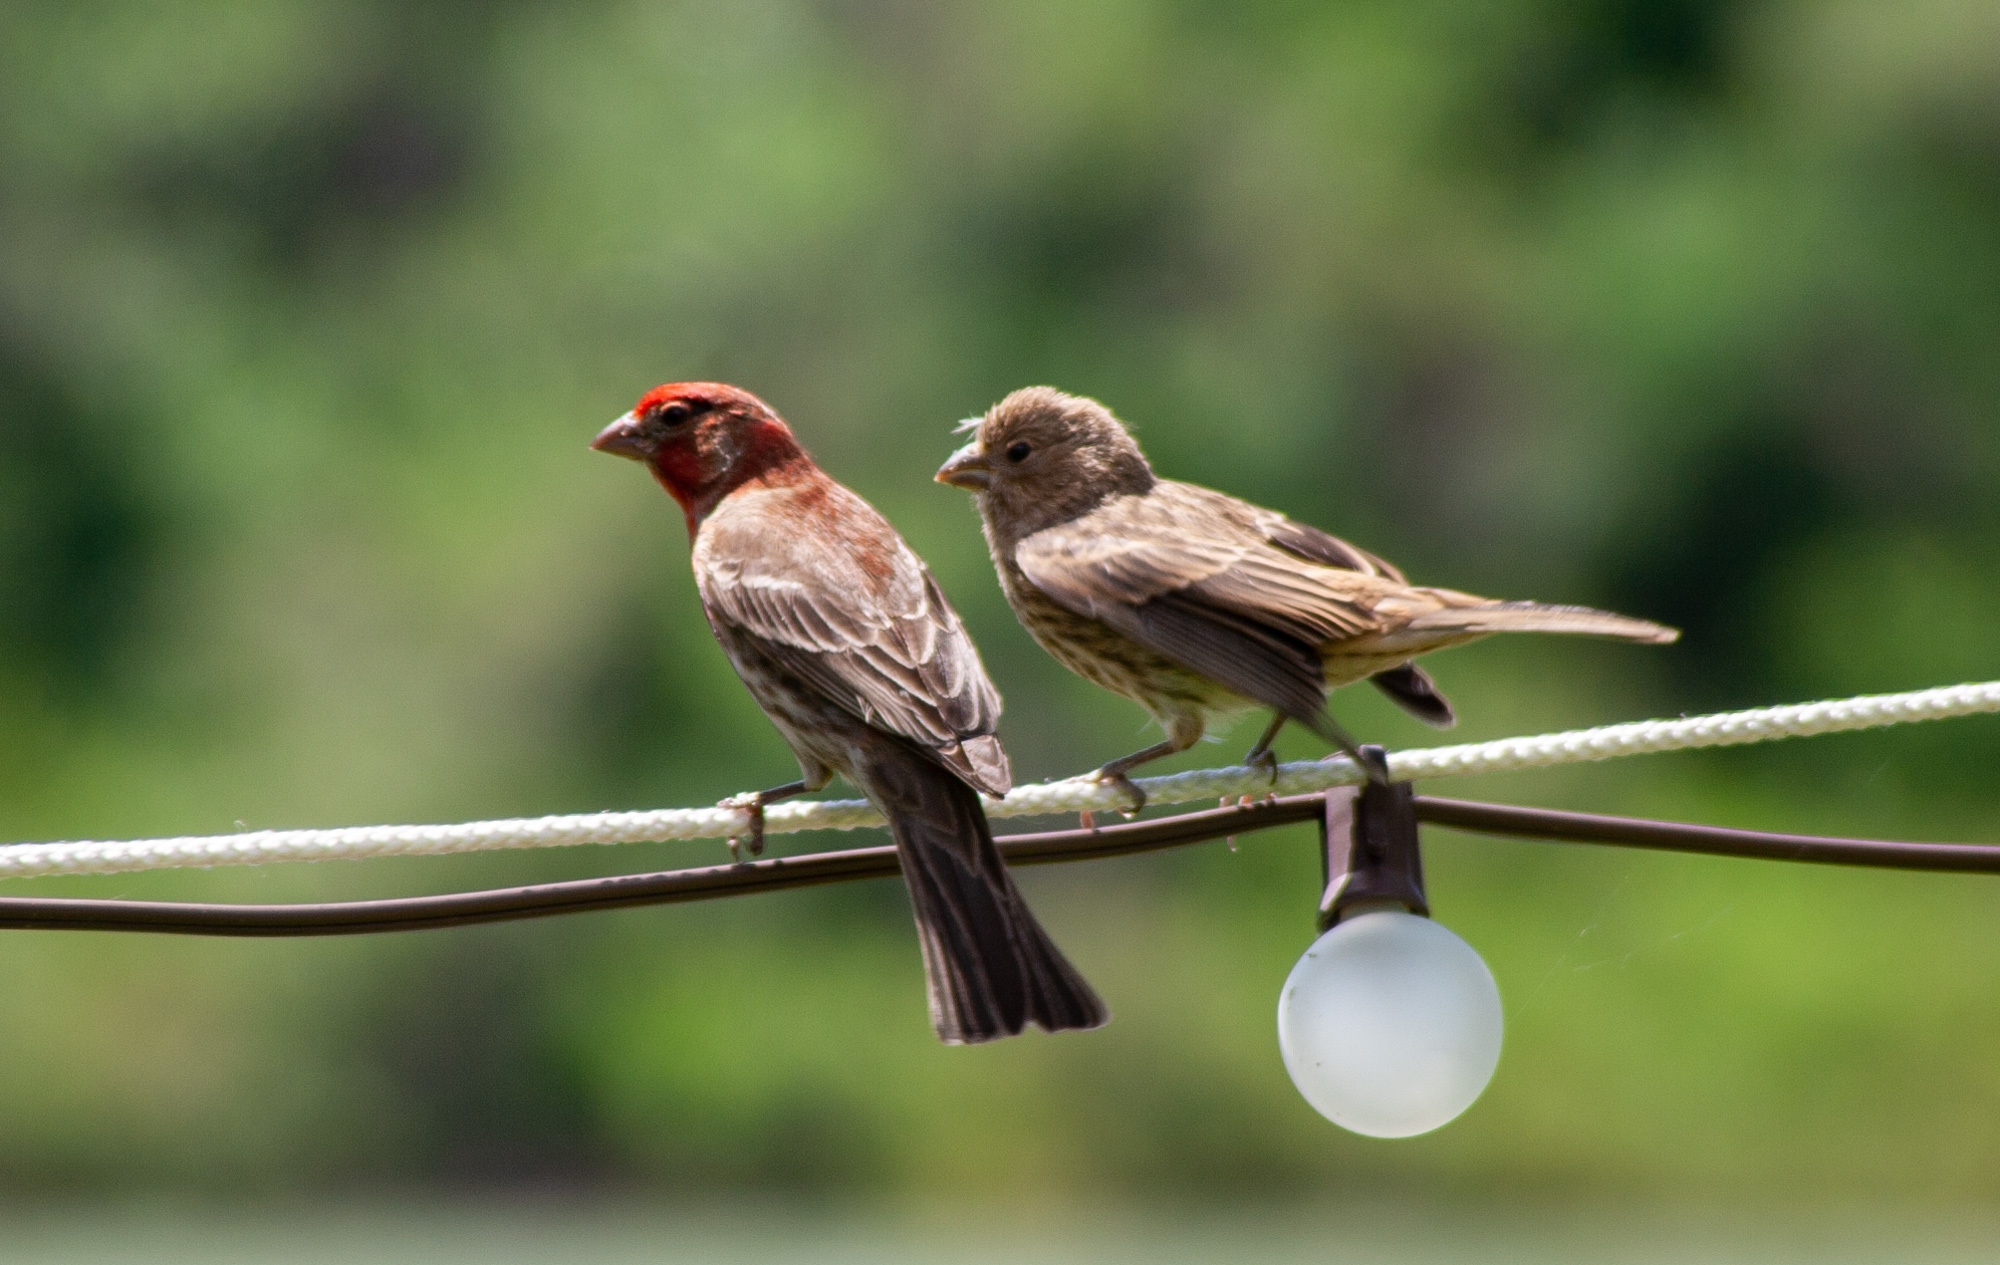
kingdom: Animalia
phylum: Chordata
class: Aves
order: Passeriformes
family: Fringillidae
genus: Haemorhous
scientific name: Haemorhous mexicanus
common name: House finch
